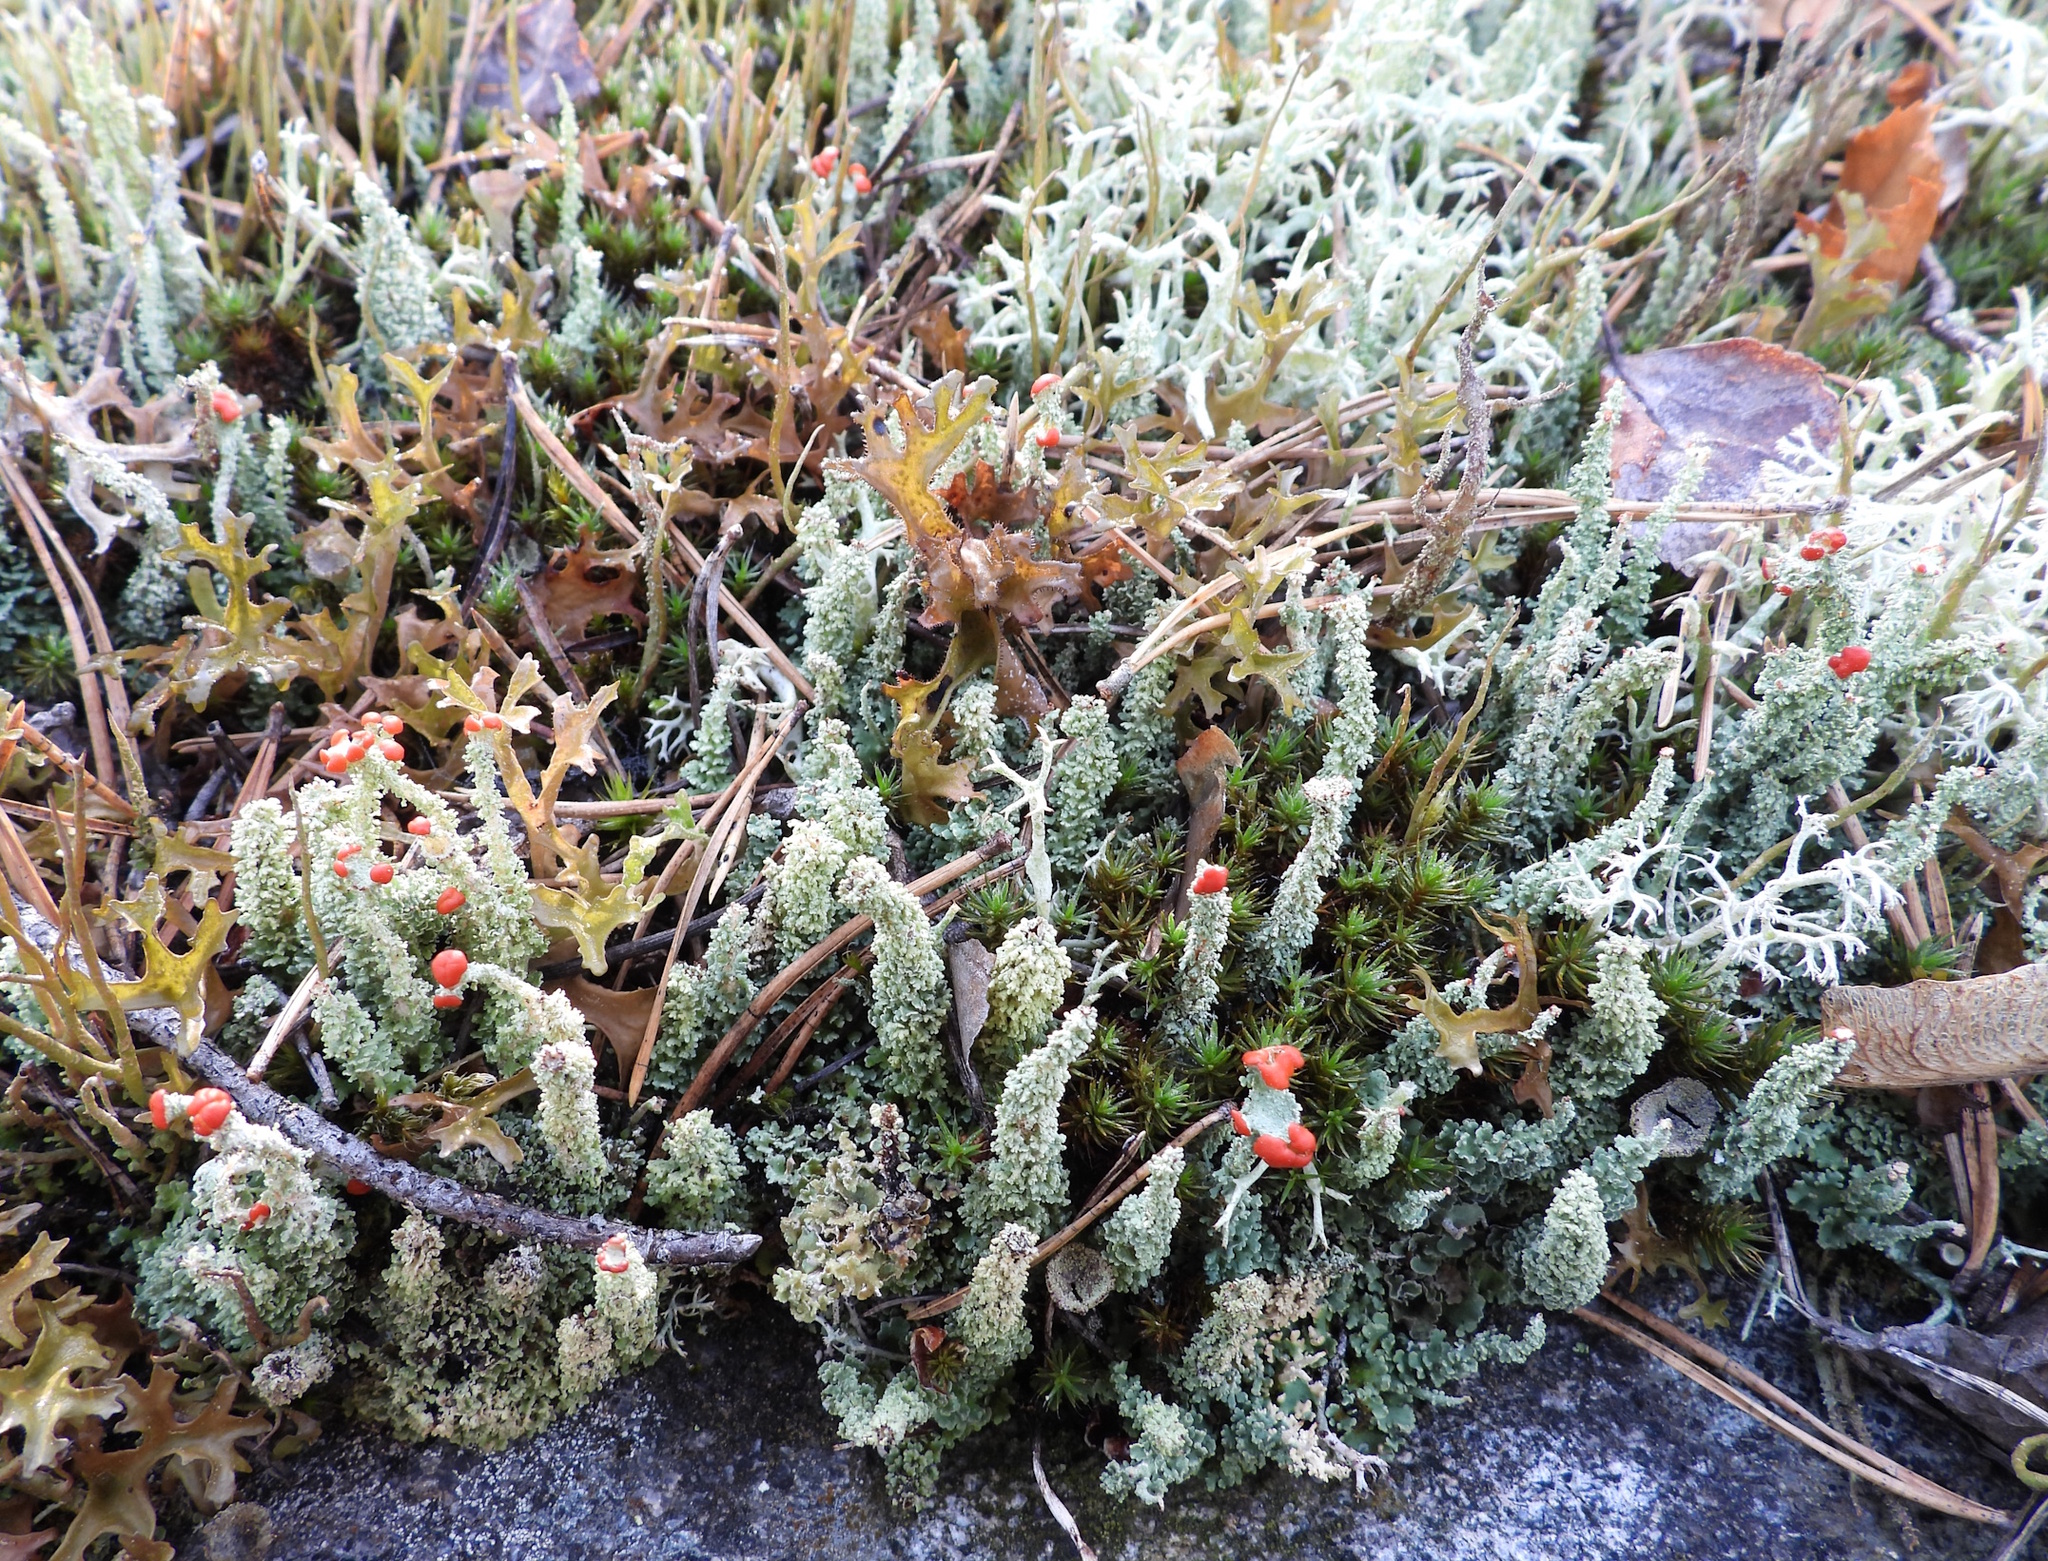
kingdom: Fungi
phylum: Ascomycota
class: Lecanoromycetes
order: Lecanorales
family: Cladoniaceae
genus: Cladonia
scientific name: Cladonia bellidiflora
